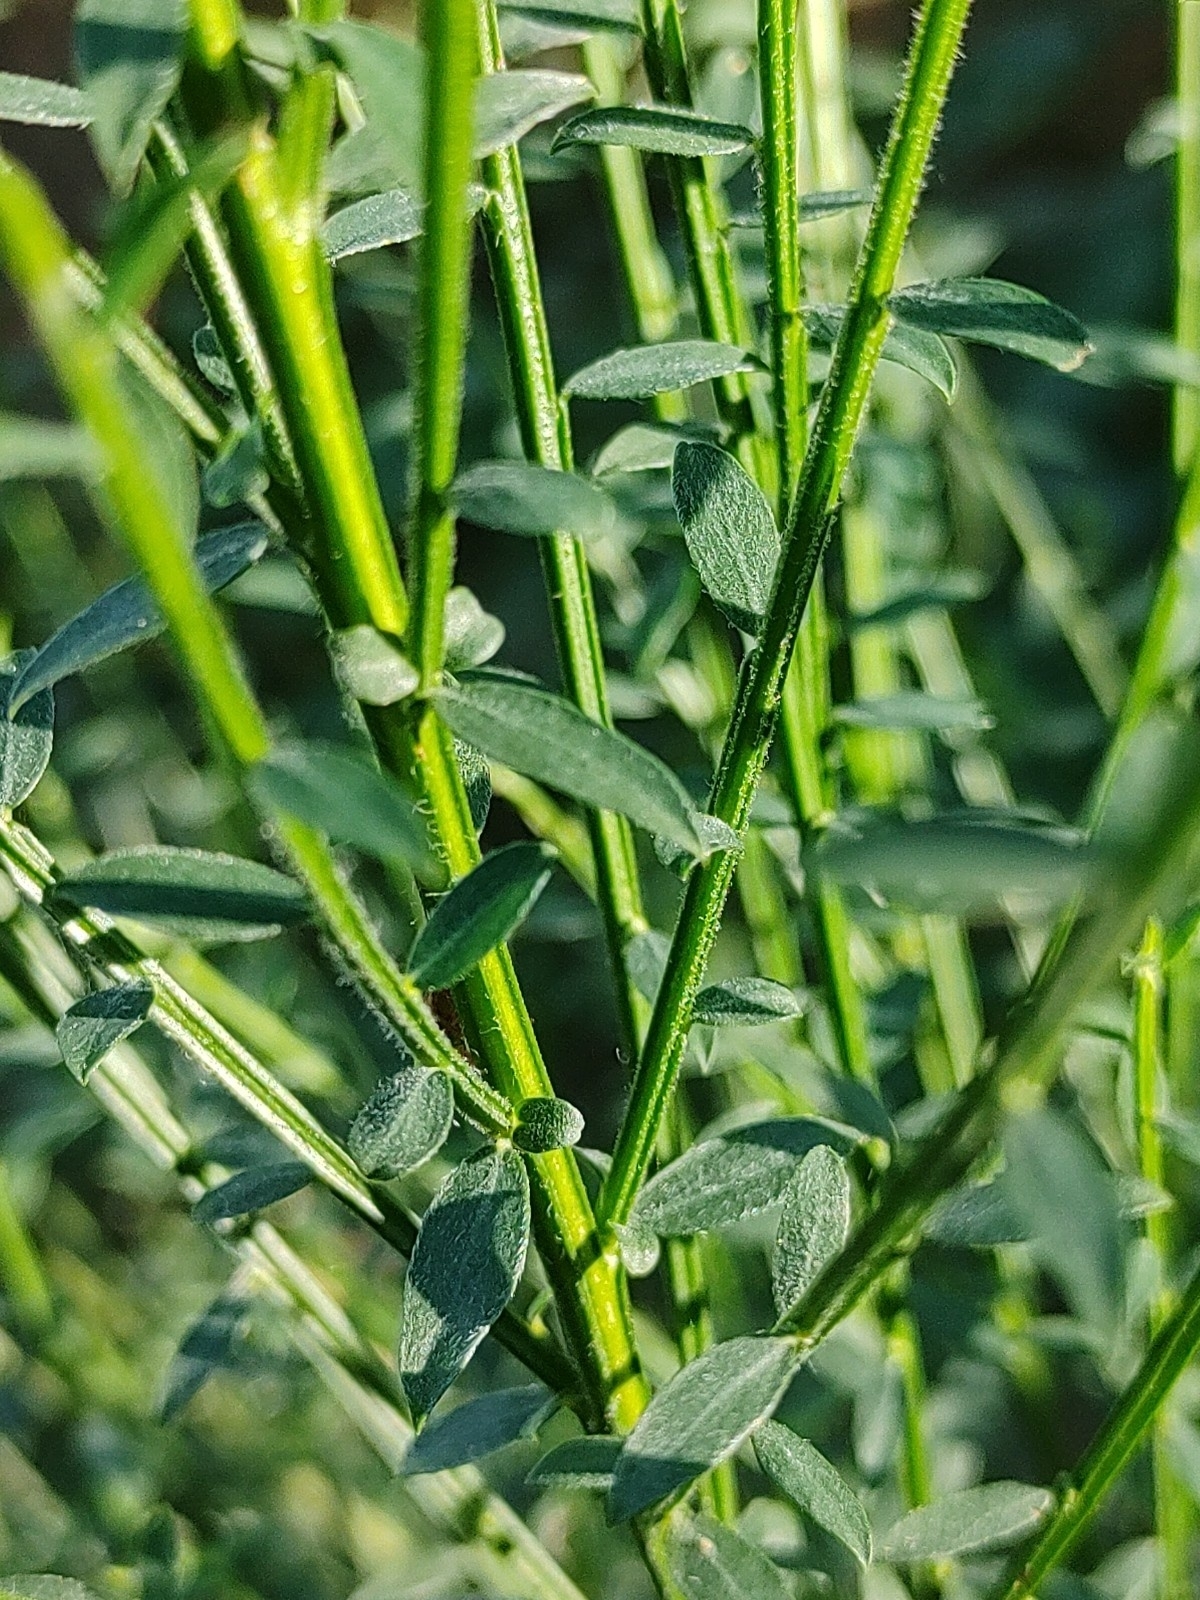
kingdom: Plantae
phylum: Tracheophyta
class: Magnoliopsida
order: Fabales
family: Fabaceae
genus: Cytisus
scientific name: Cytisus scoparius
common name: Scotch broom
